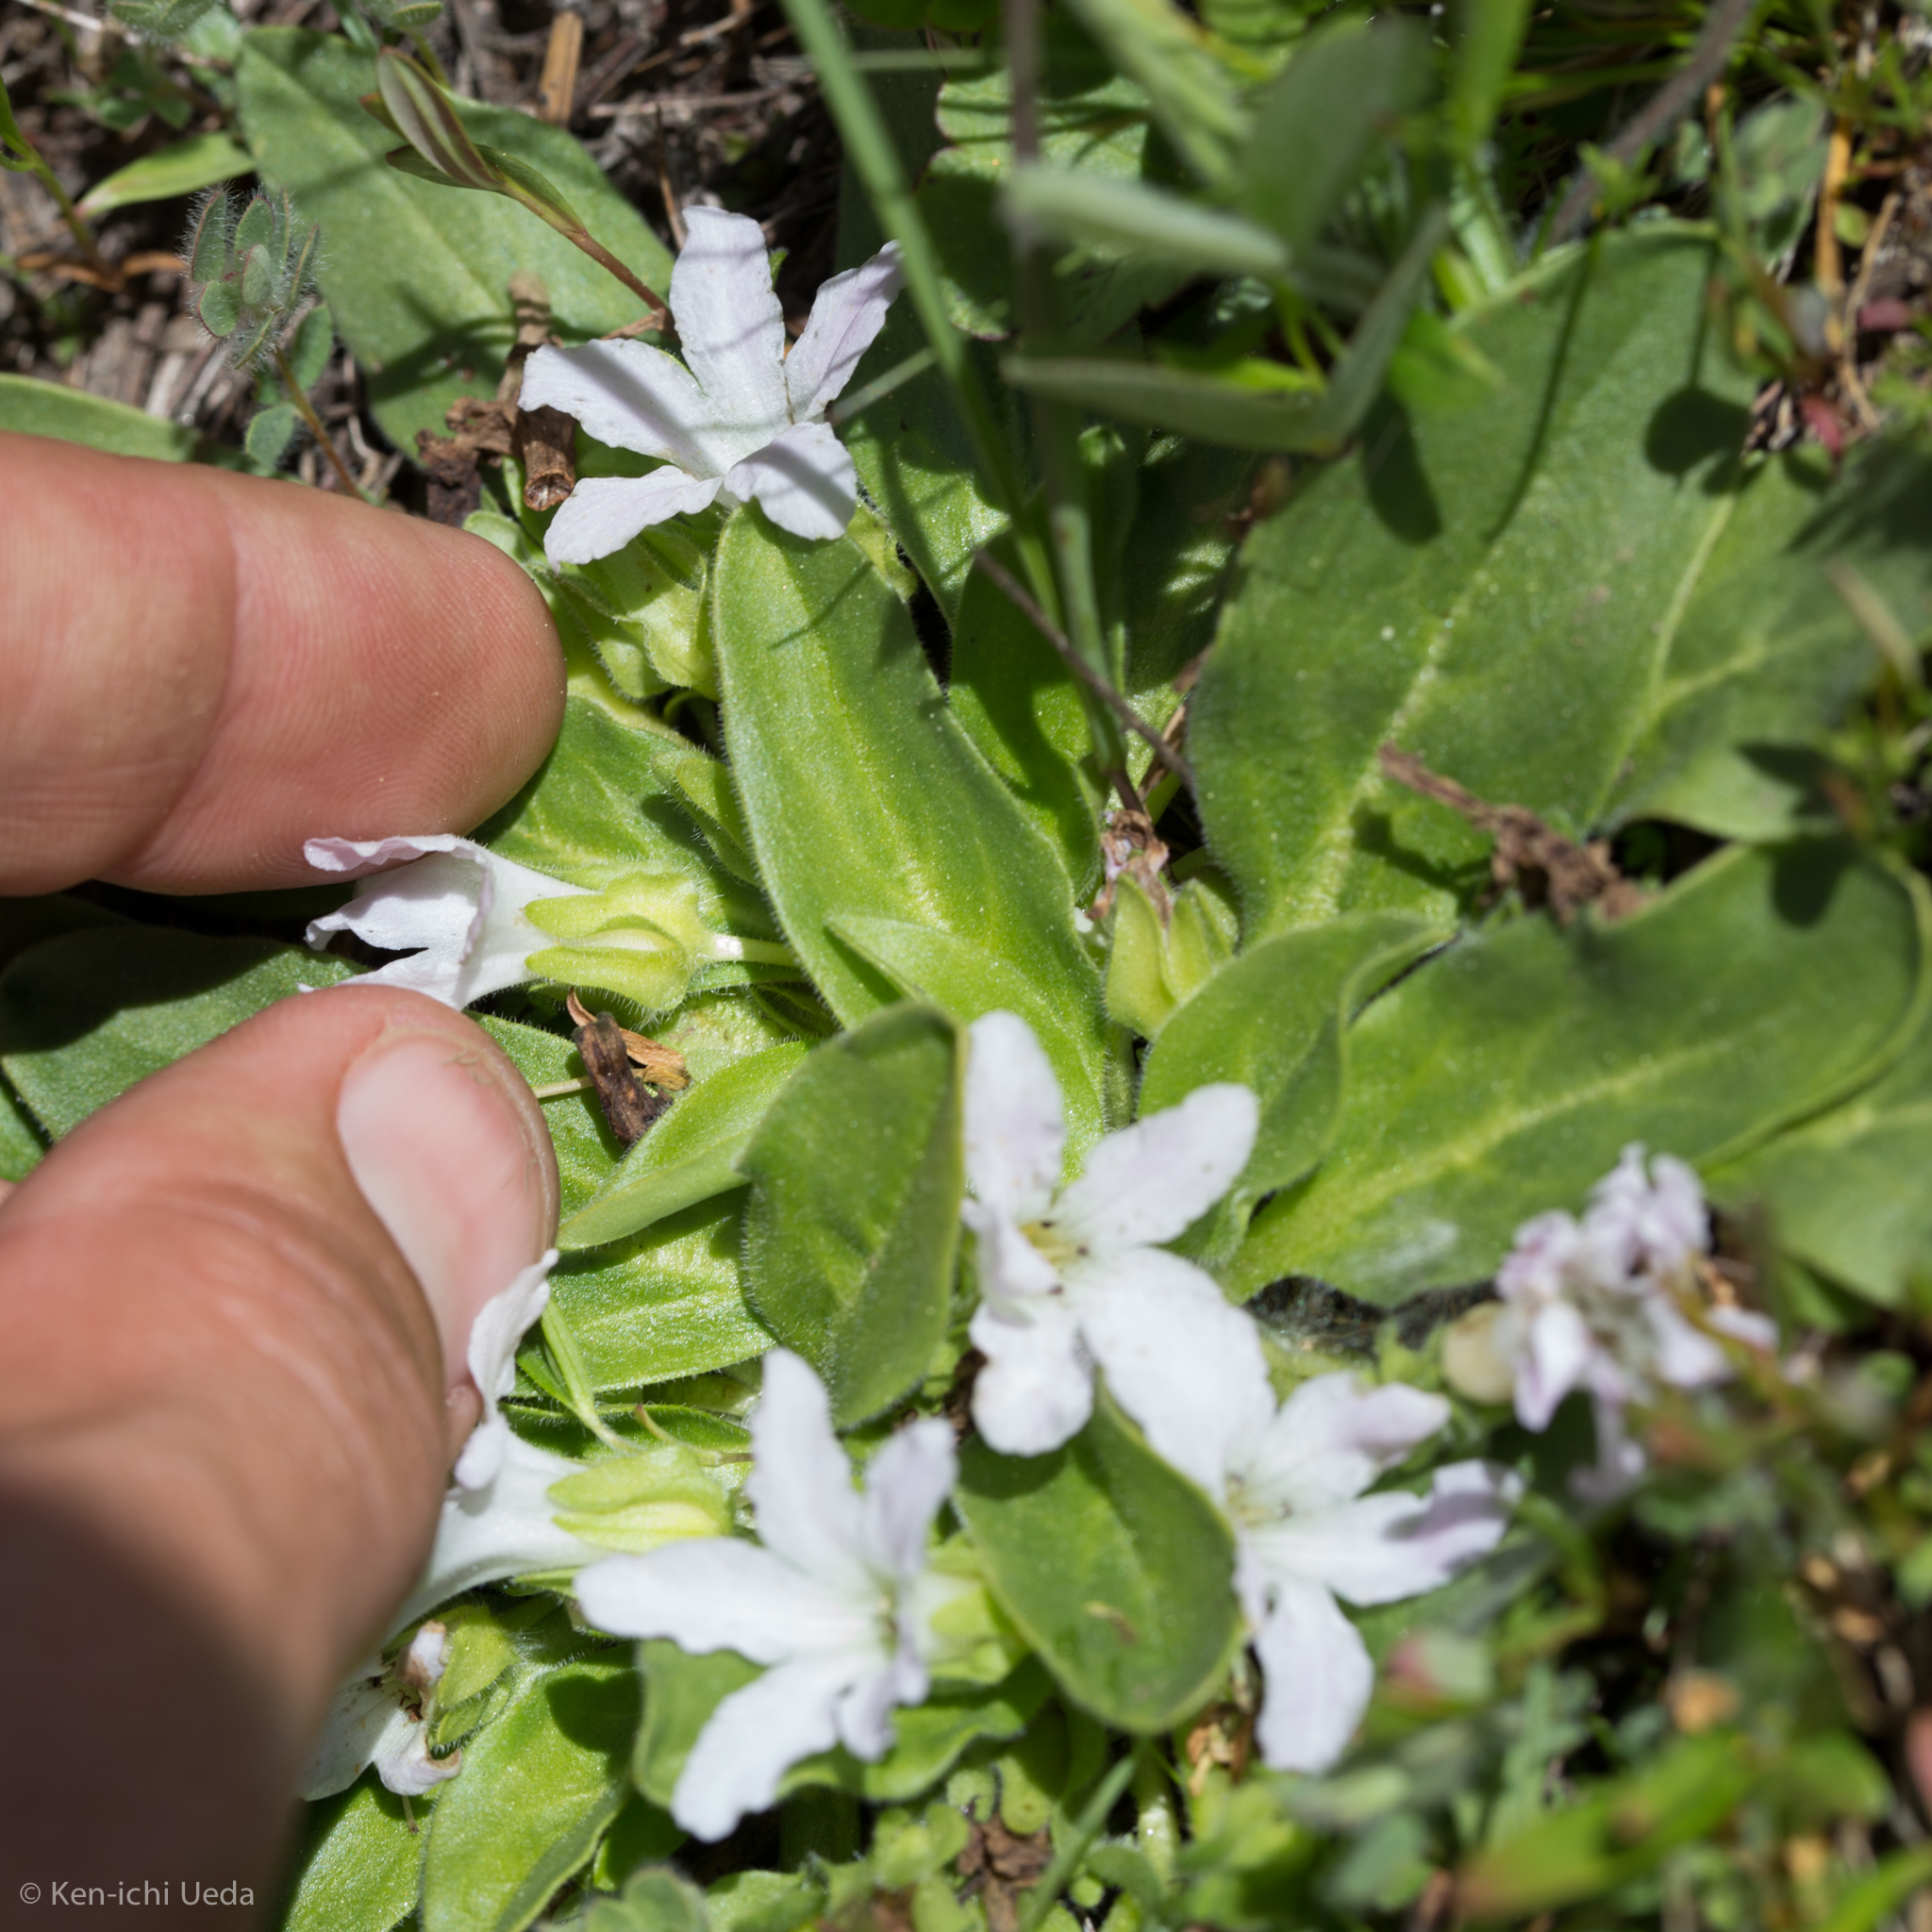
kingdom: Plantae
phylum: Tracheophyta
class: Magnoliopsida
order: Boraginales
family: Hydrophyllaceae
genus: Hesperochiron
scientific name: Hesperochiron californicus
